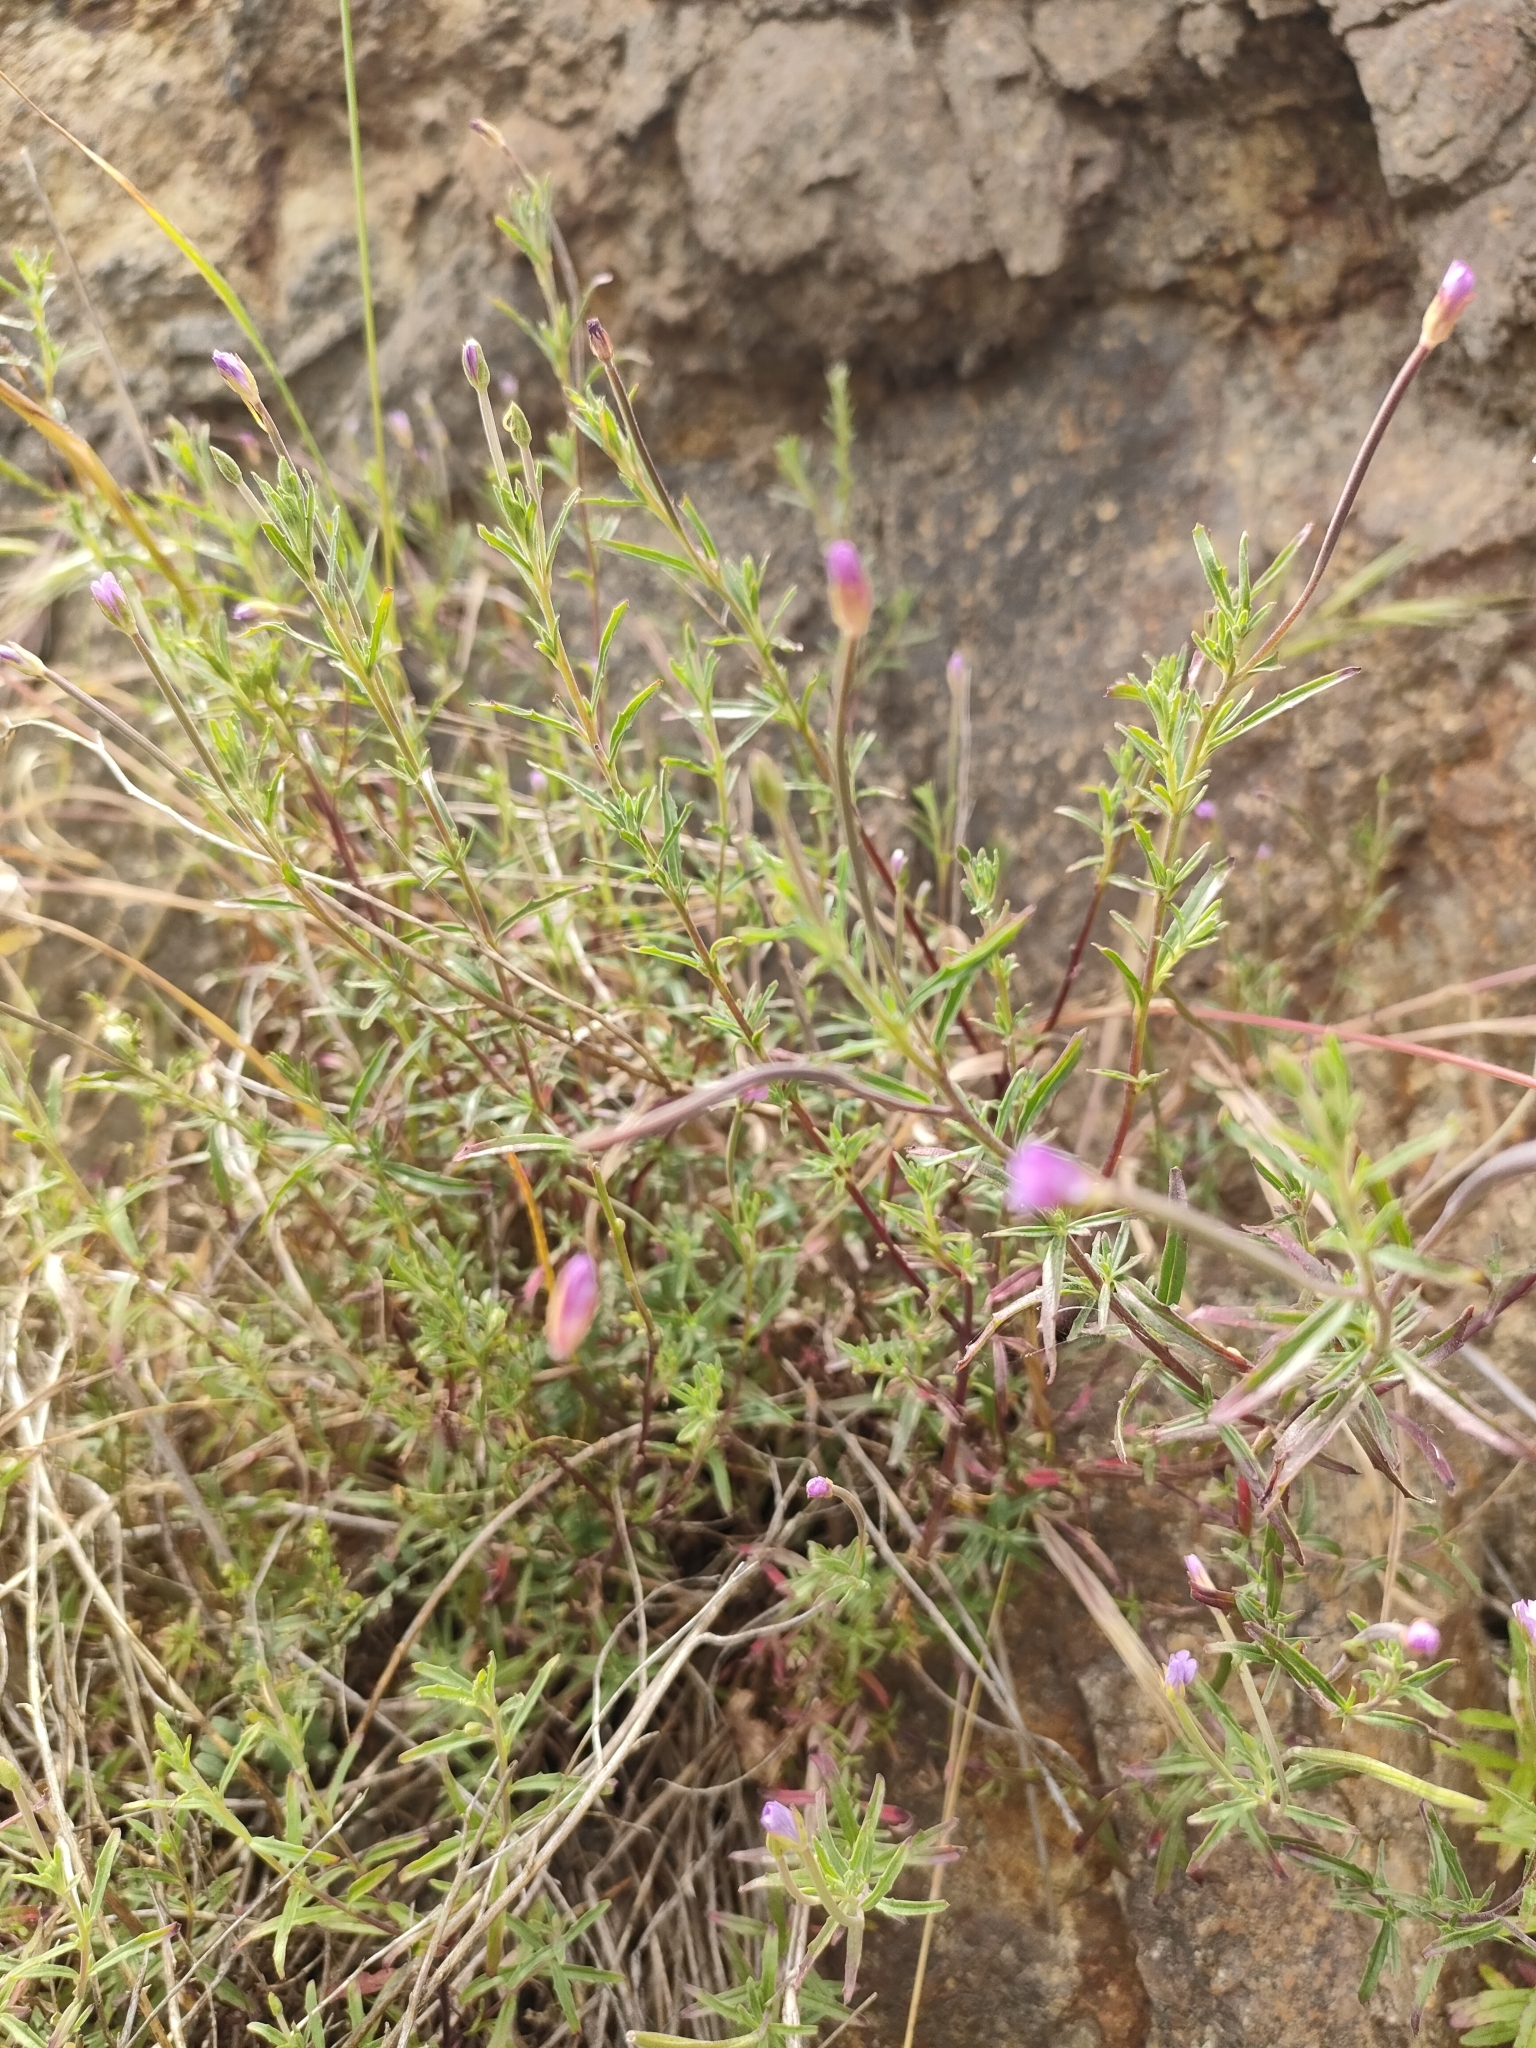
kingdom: Plantae
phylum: Tracheophyta
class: Magnoliopsida
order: Myrtales
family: Onagraceae
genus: Epilobium
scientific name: Epilobium billardierianum
